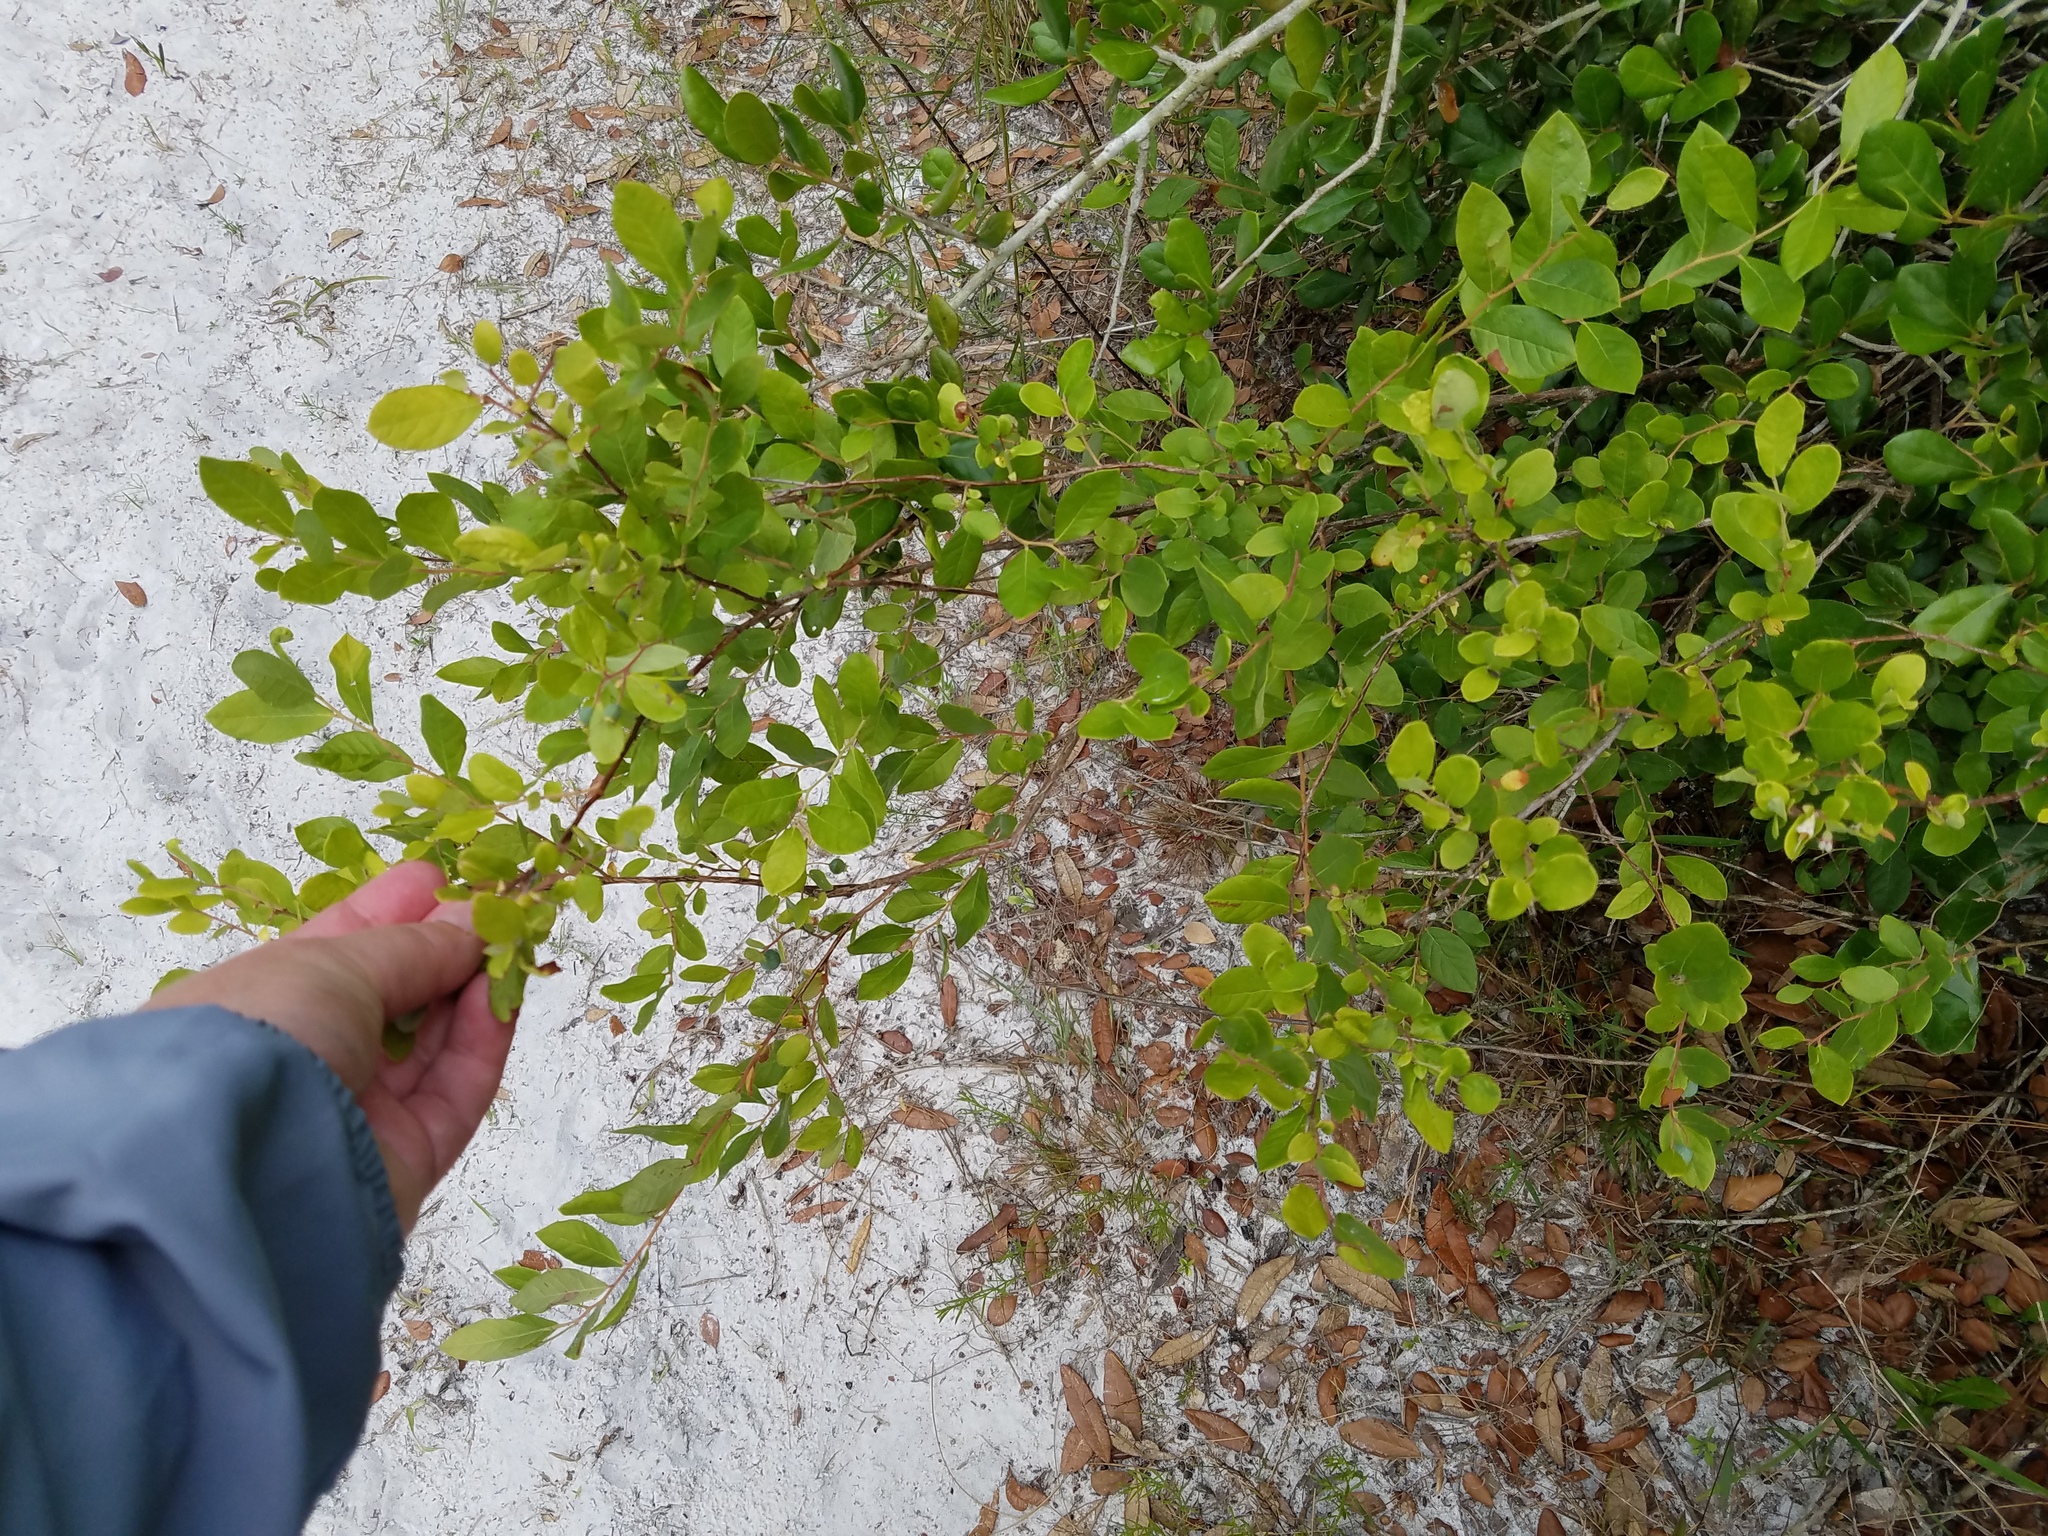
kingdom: Plantae
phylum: Tracheophyta
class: Magnoliopsida
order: Ericales
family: Ericaceae
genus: Vaccinium
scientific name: Vaccinium stamineum
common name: Deerberry
